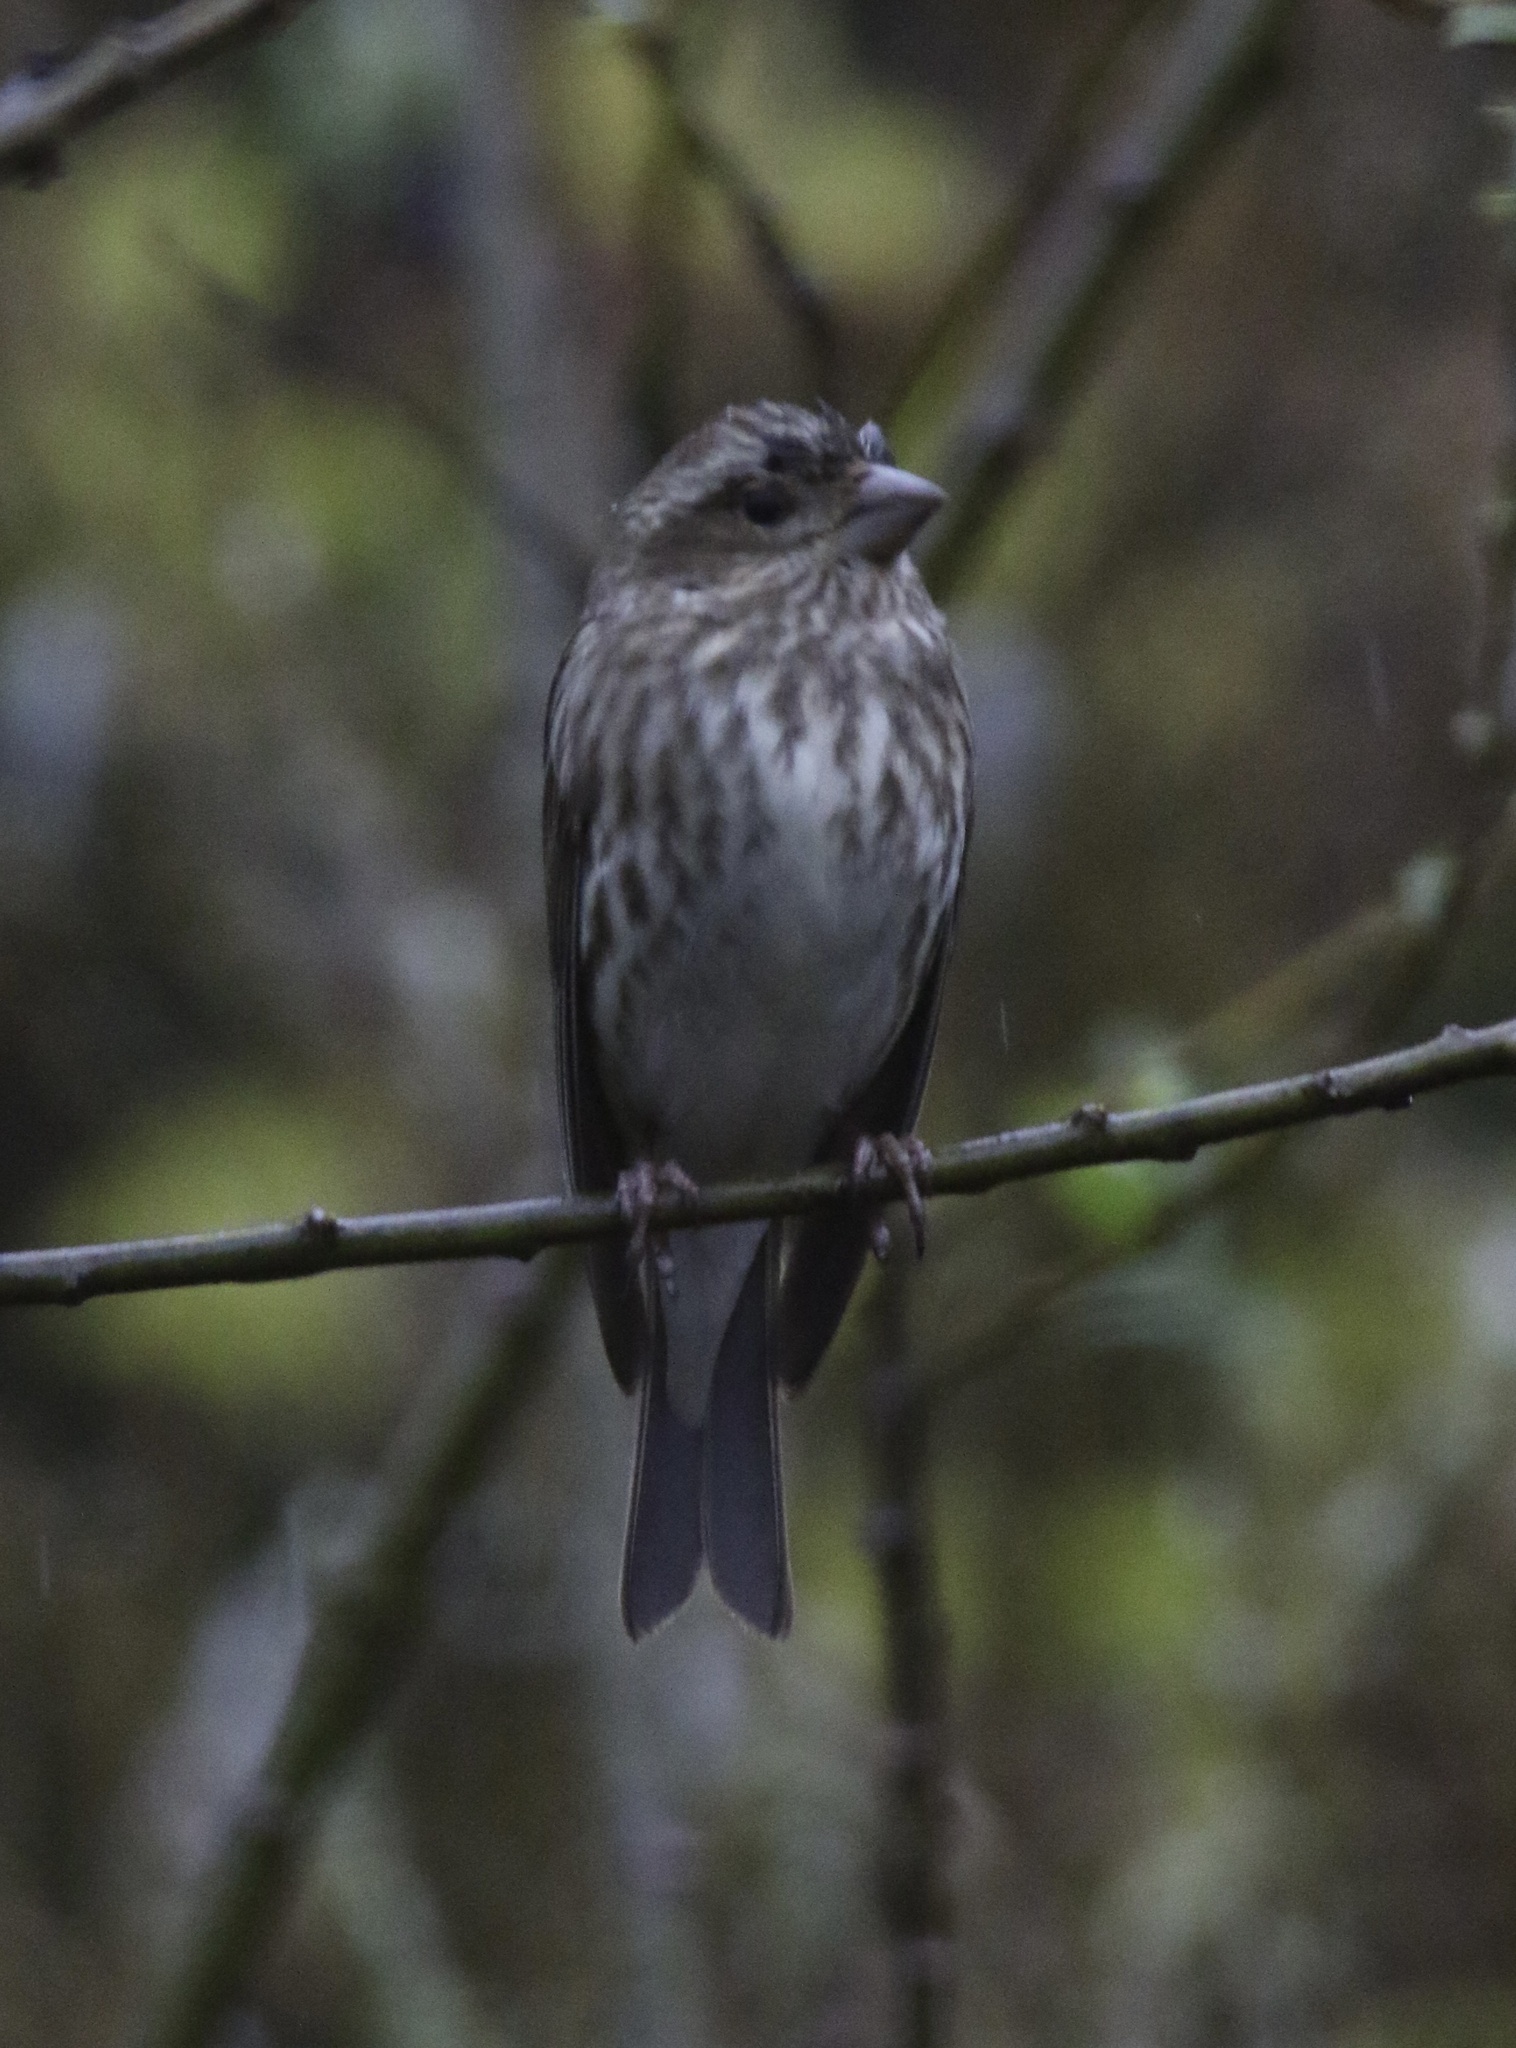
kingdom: Animalia
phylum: Chordata
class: Aves
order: Passeriformes
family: Fringillidae
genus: Haemorhous
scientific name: Haemorhous purpureus
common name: Purple finch
